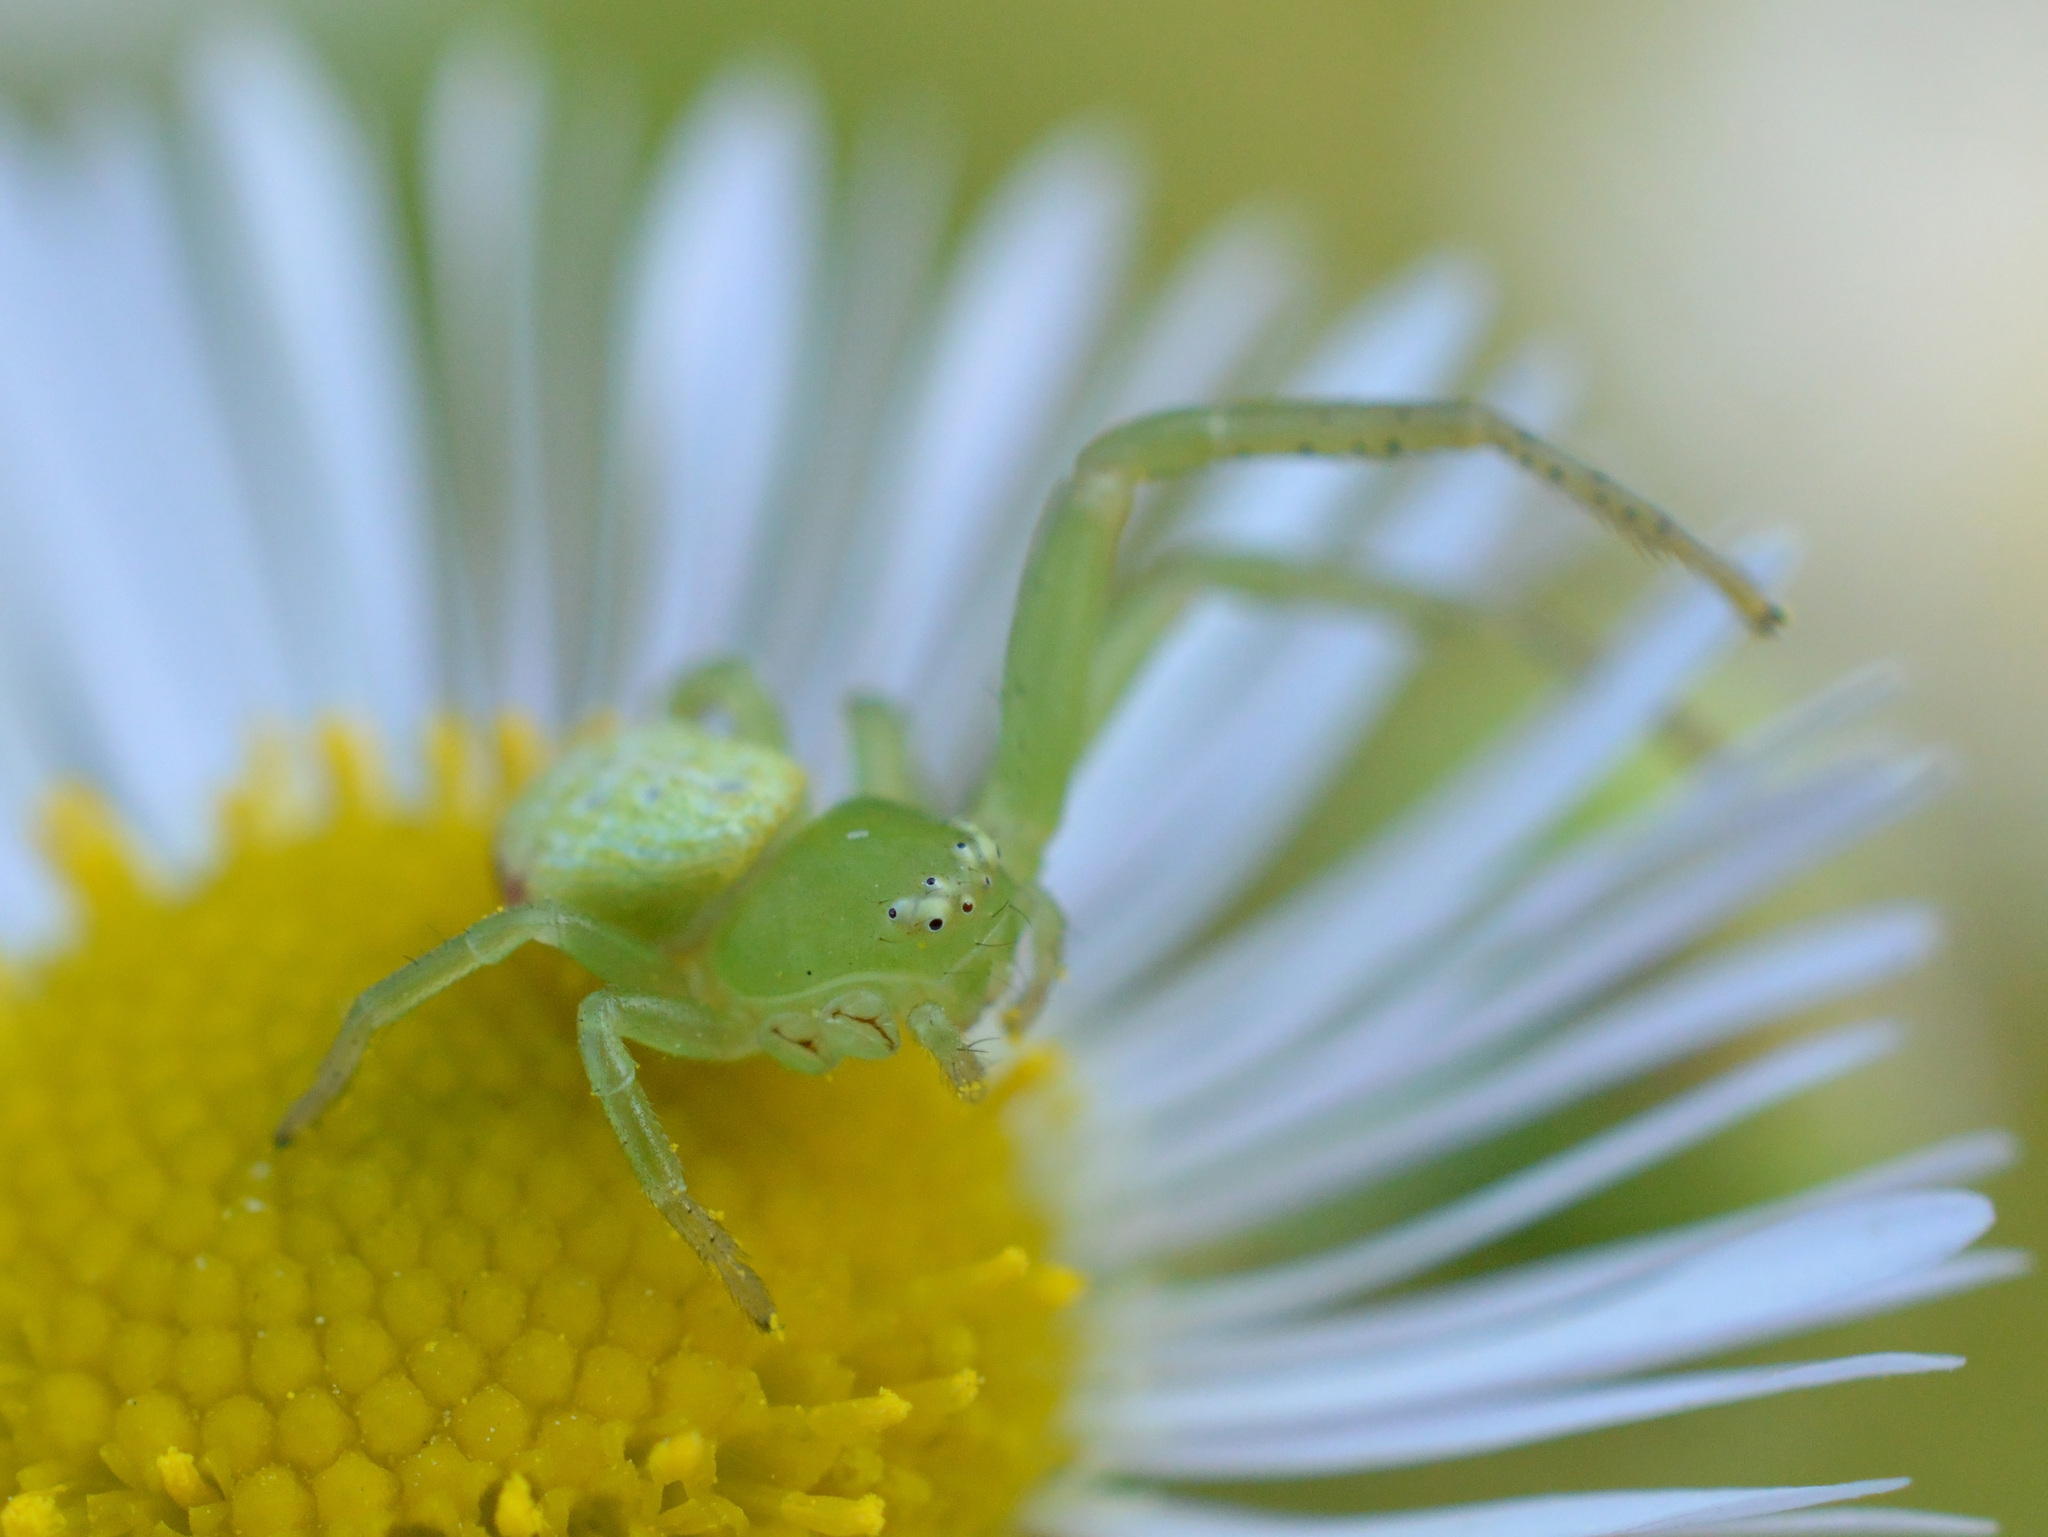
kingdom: Animalia
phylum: Arthropoda
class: Arachnida
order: Araneae
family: Thomisidae
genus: Ebrechtella
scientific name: Ebrechtella tricuspidata
